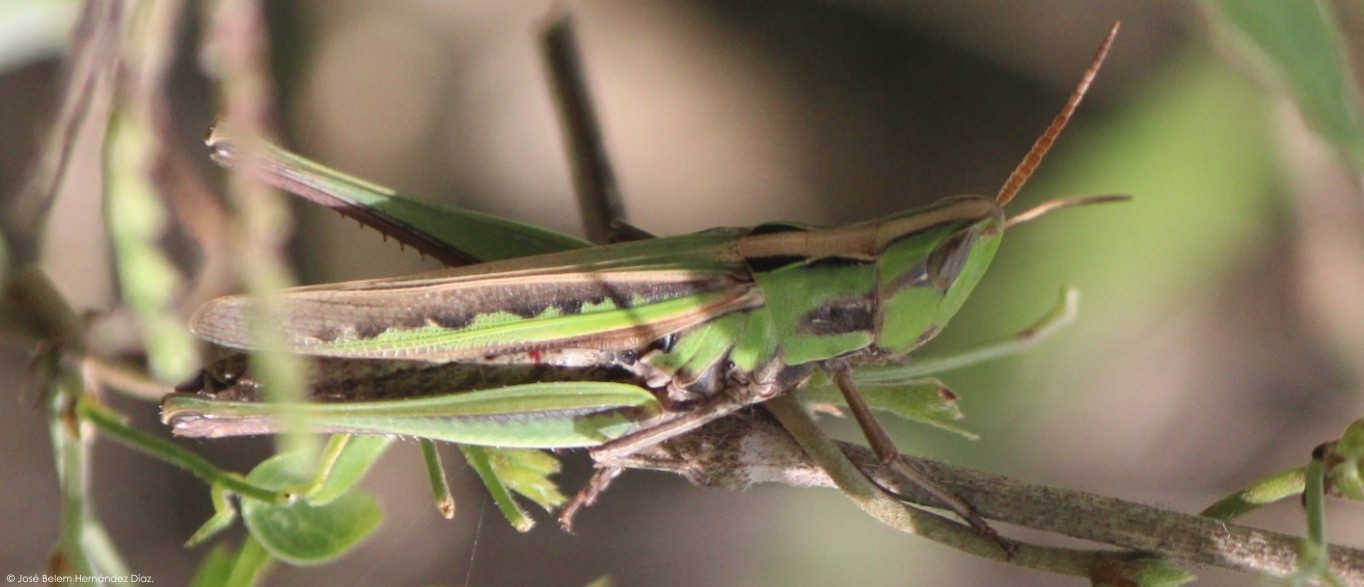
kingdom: Animalia
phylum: Arthropoda
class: Insecta
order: Orthoptera
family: Acrididae
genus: Syrbula
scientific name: Syrbula montezuma
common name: Montezuma's grasshopper
